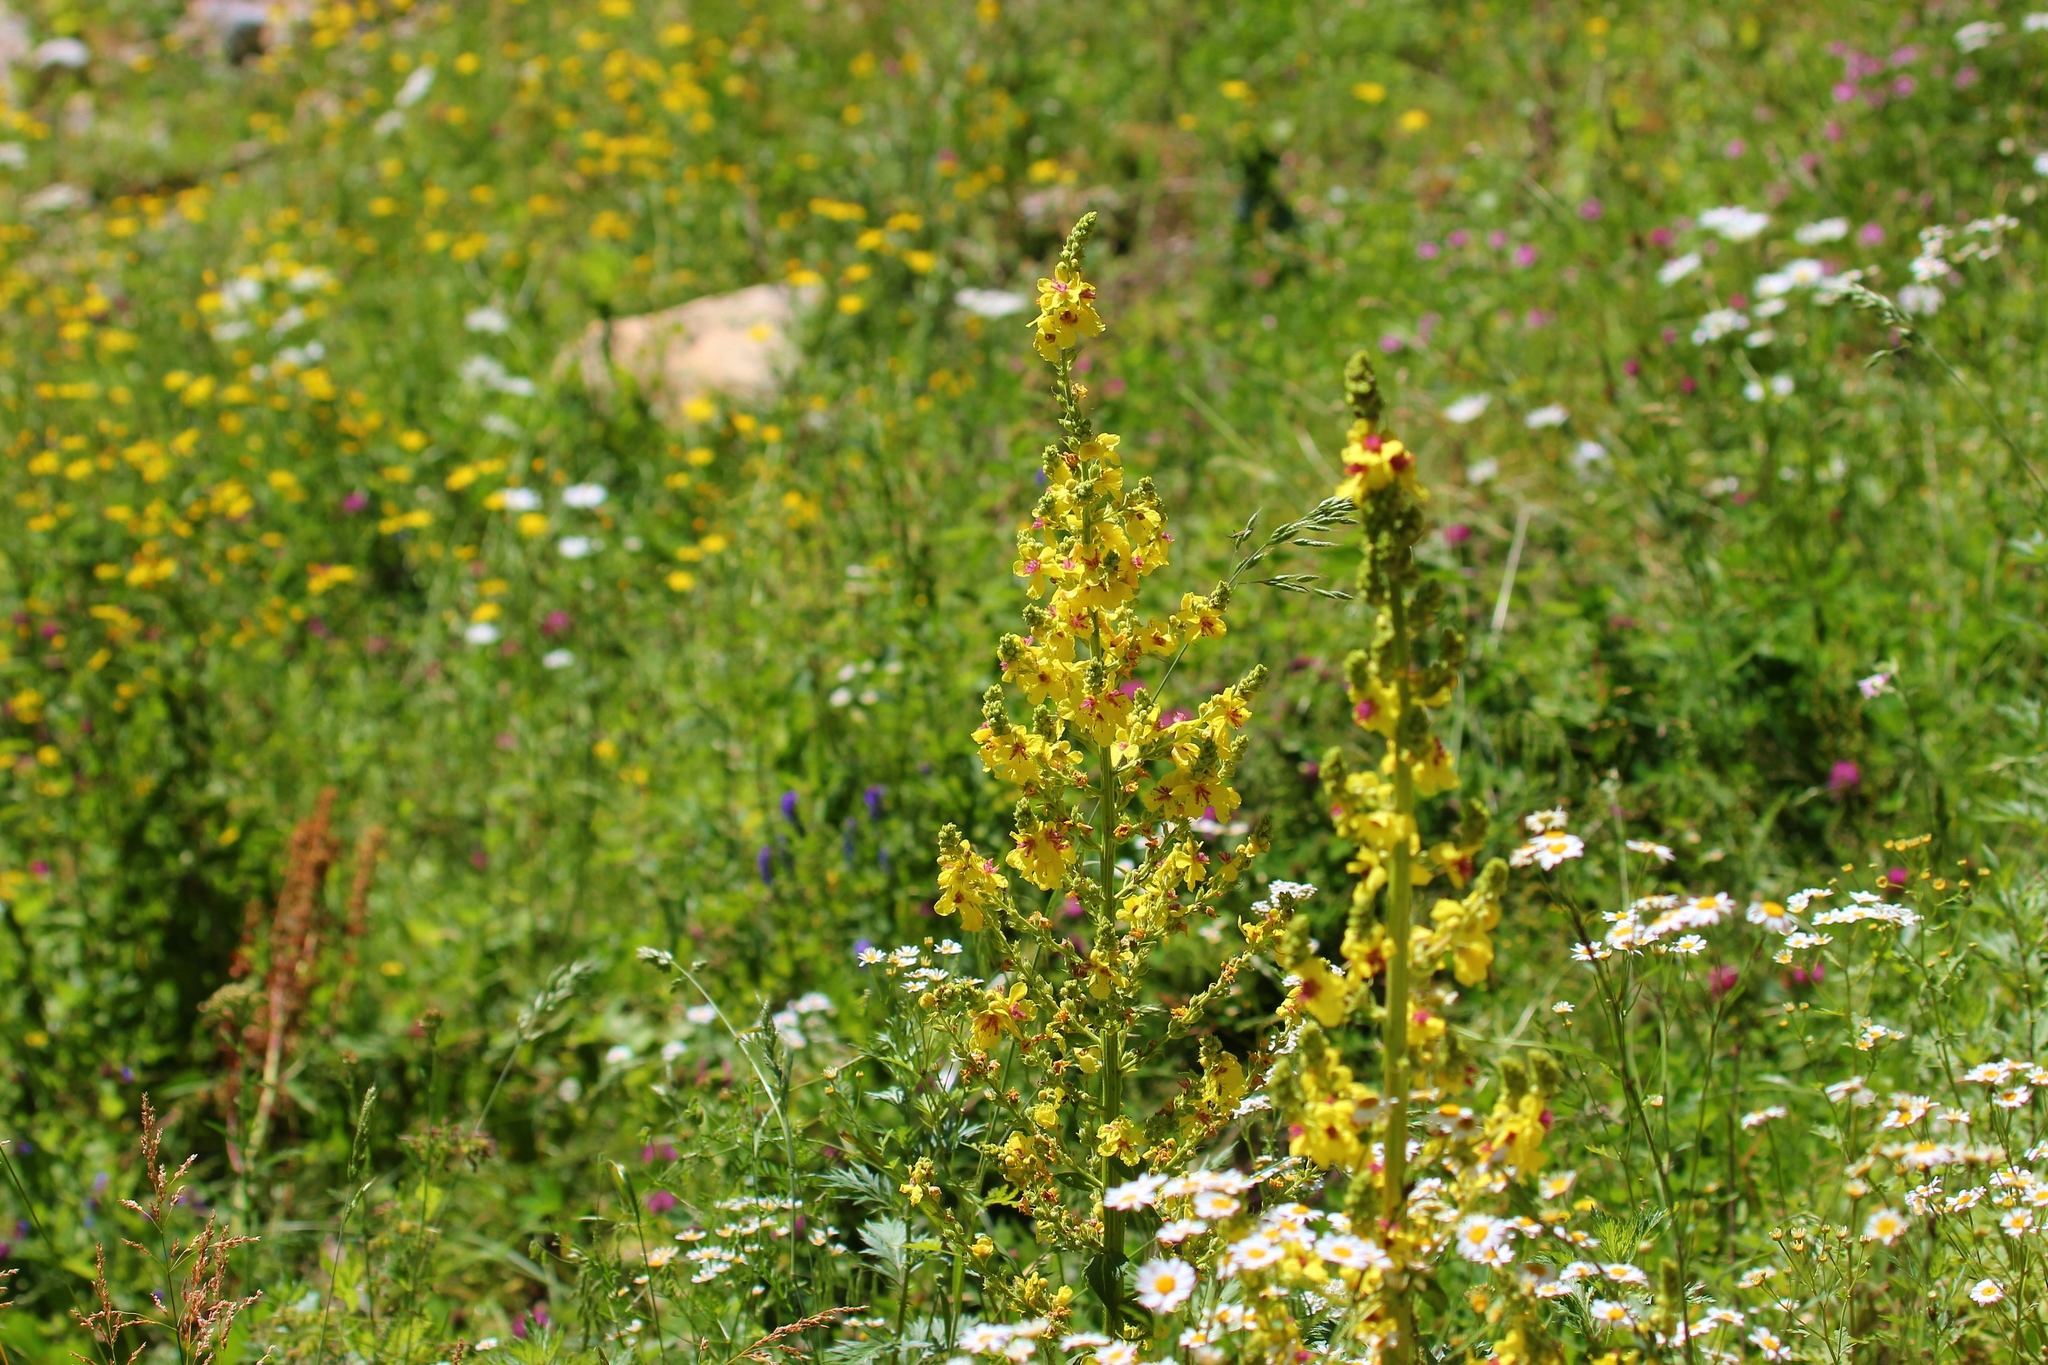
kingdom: Plantae
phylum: Tracheophyta
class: Magnoliopsida
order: Lamiales
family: Scrophulariaceae
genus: Verbascum
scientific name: Verbascum pyramidatum
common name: Caucasian mullein
